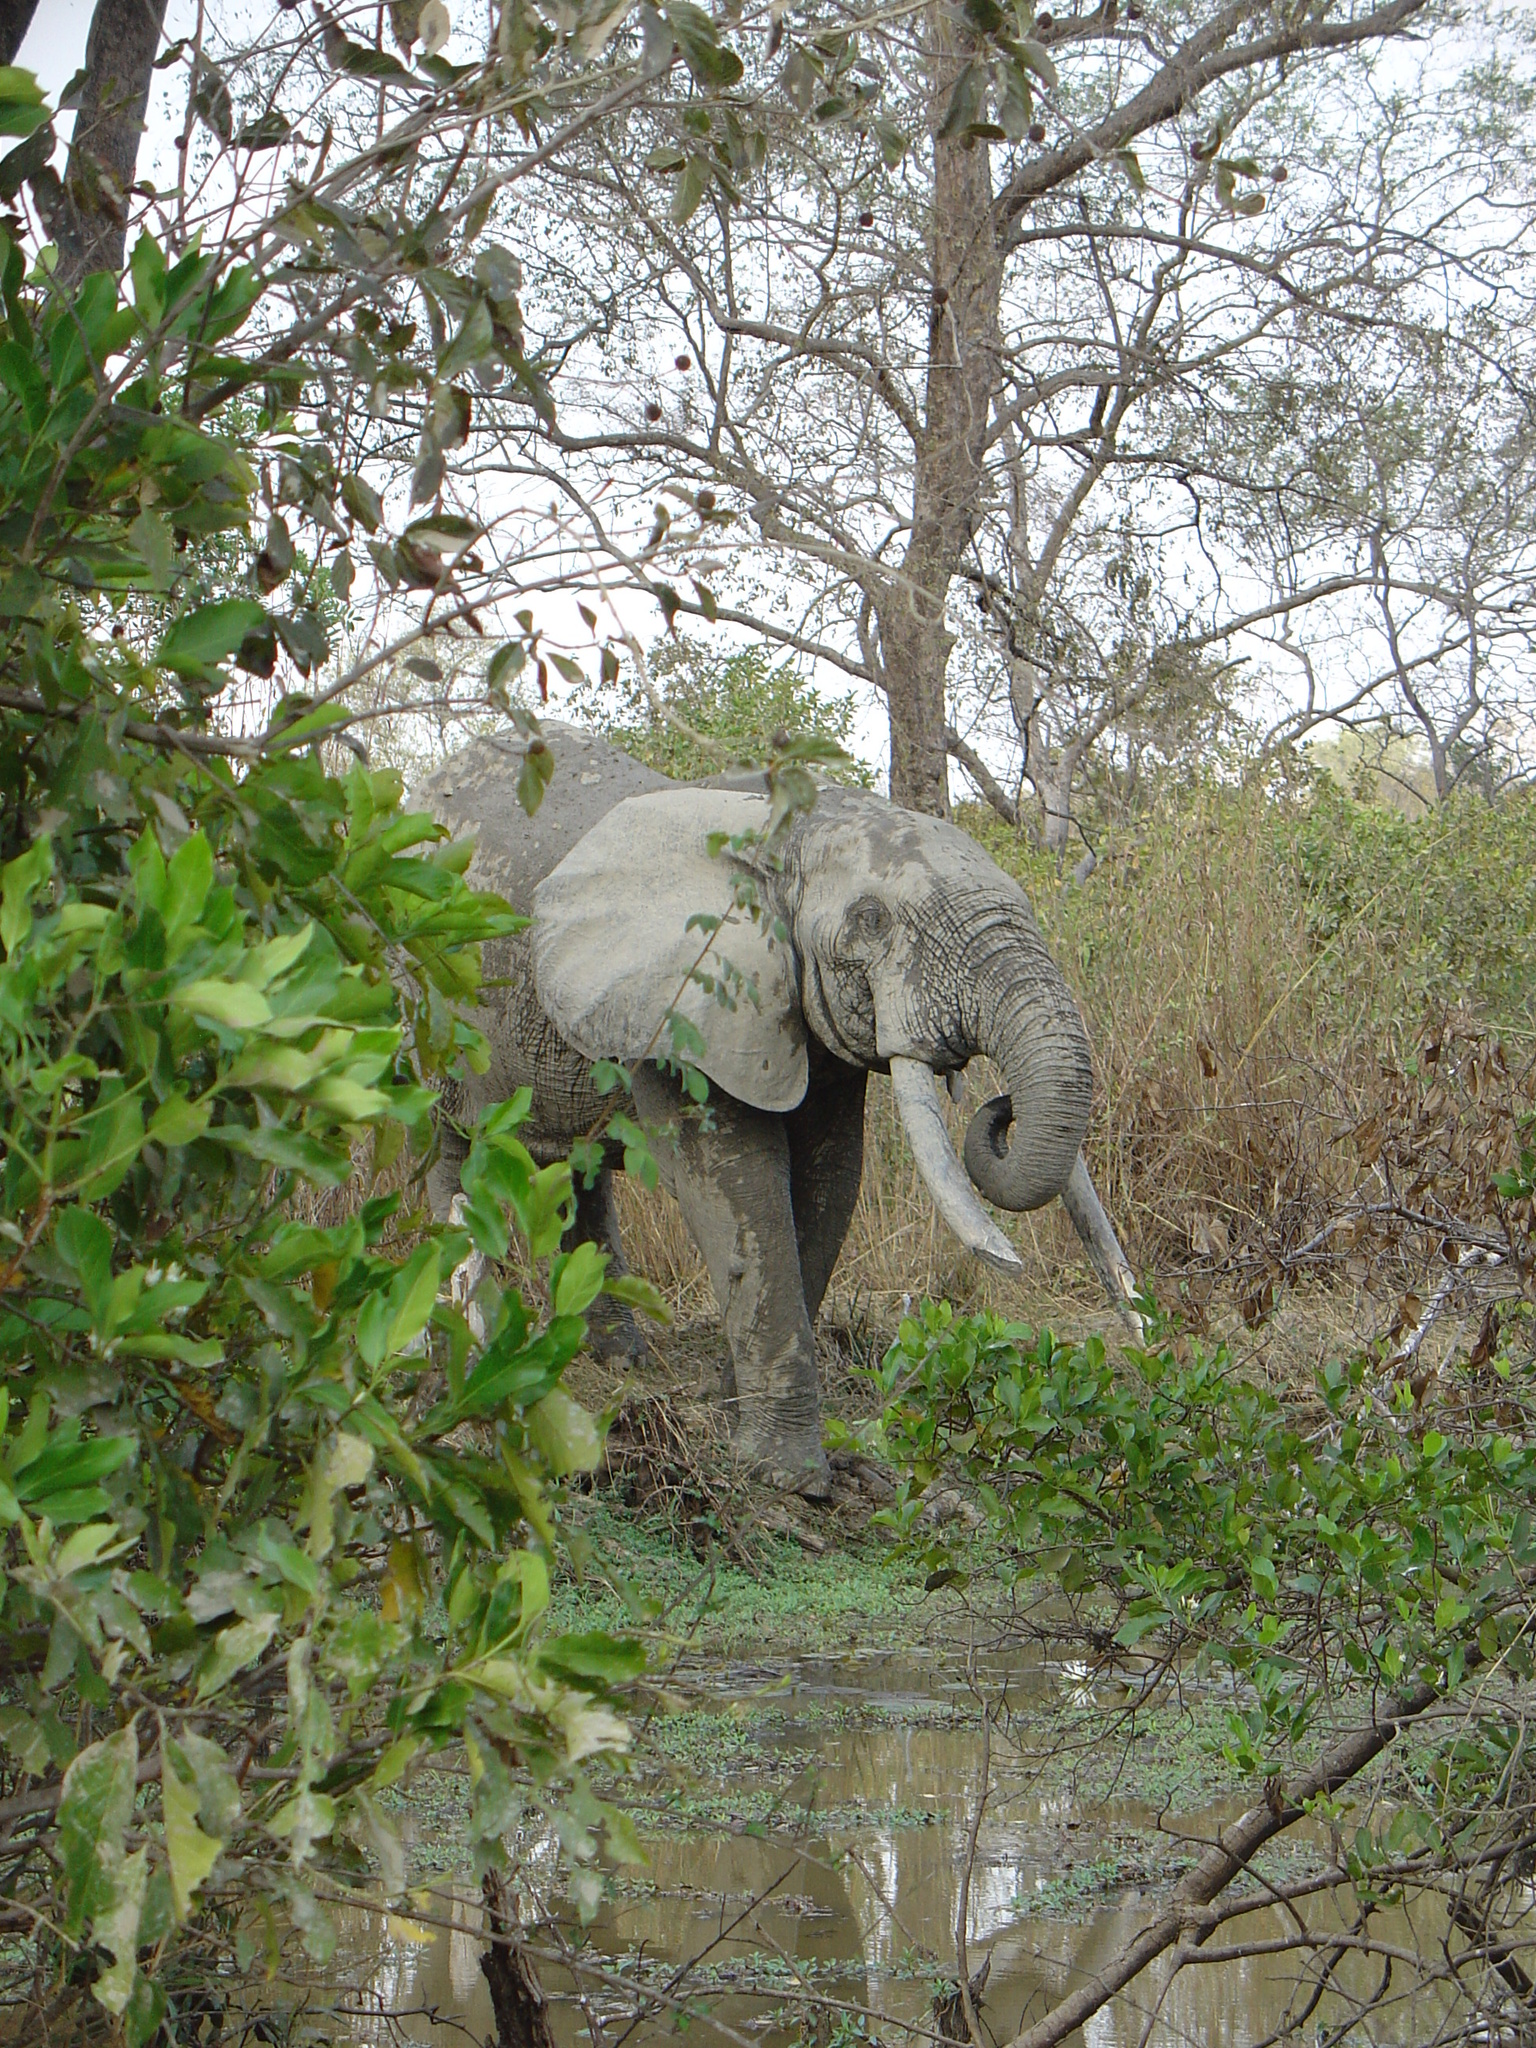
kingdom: Animalia
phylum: Chordata
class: Mammalia
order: Proboscidea
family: Elephantidae
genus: Loxodonta
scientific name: Loxodonta cyclotis
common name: African forest elephant
